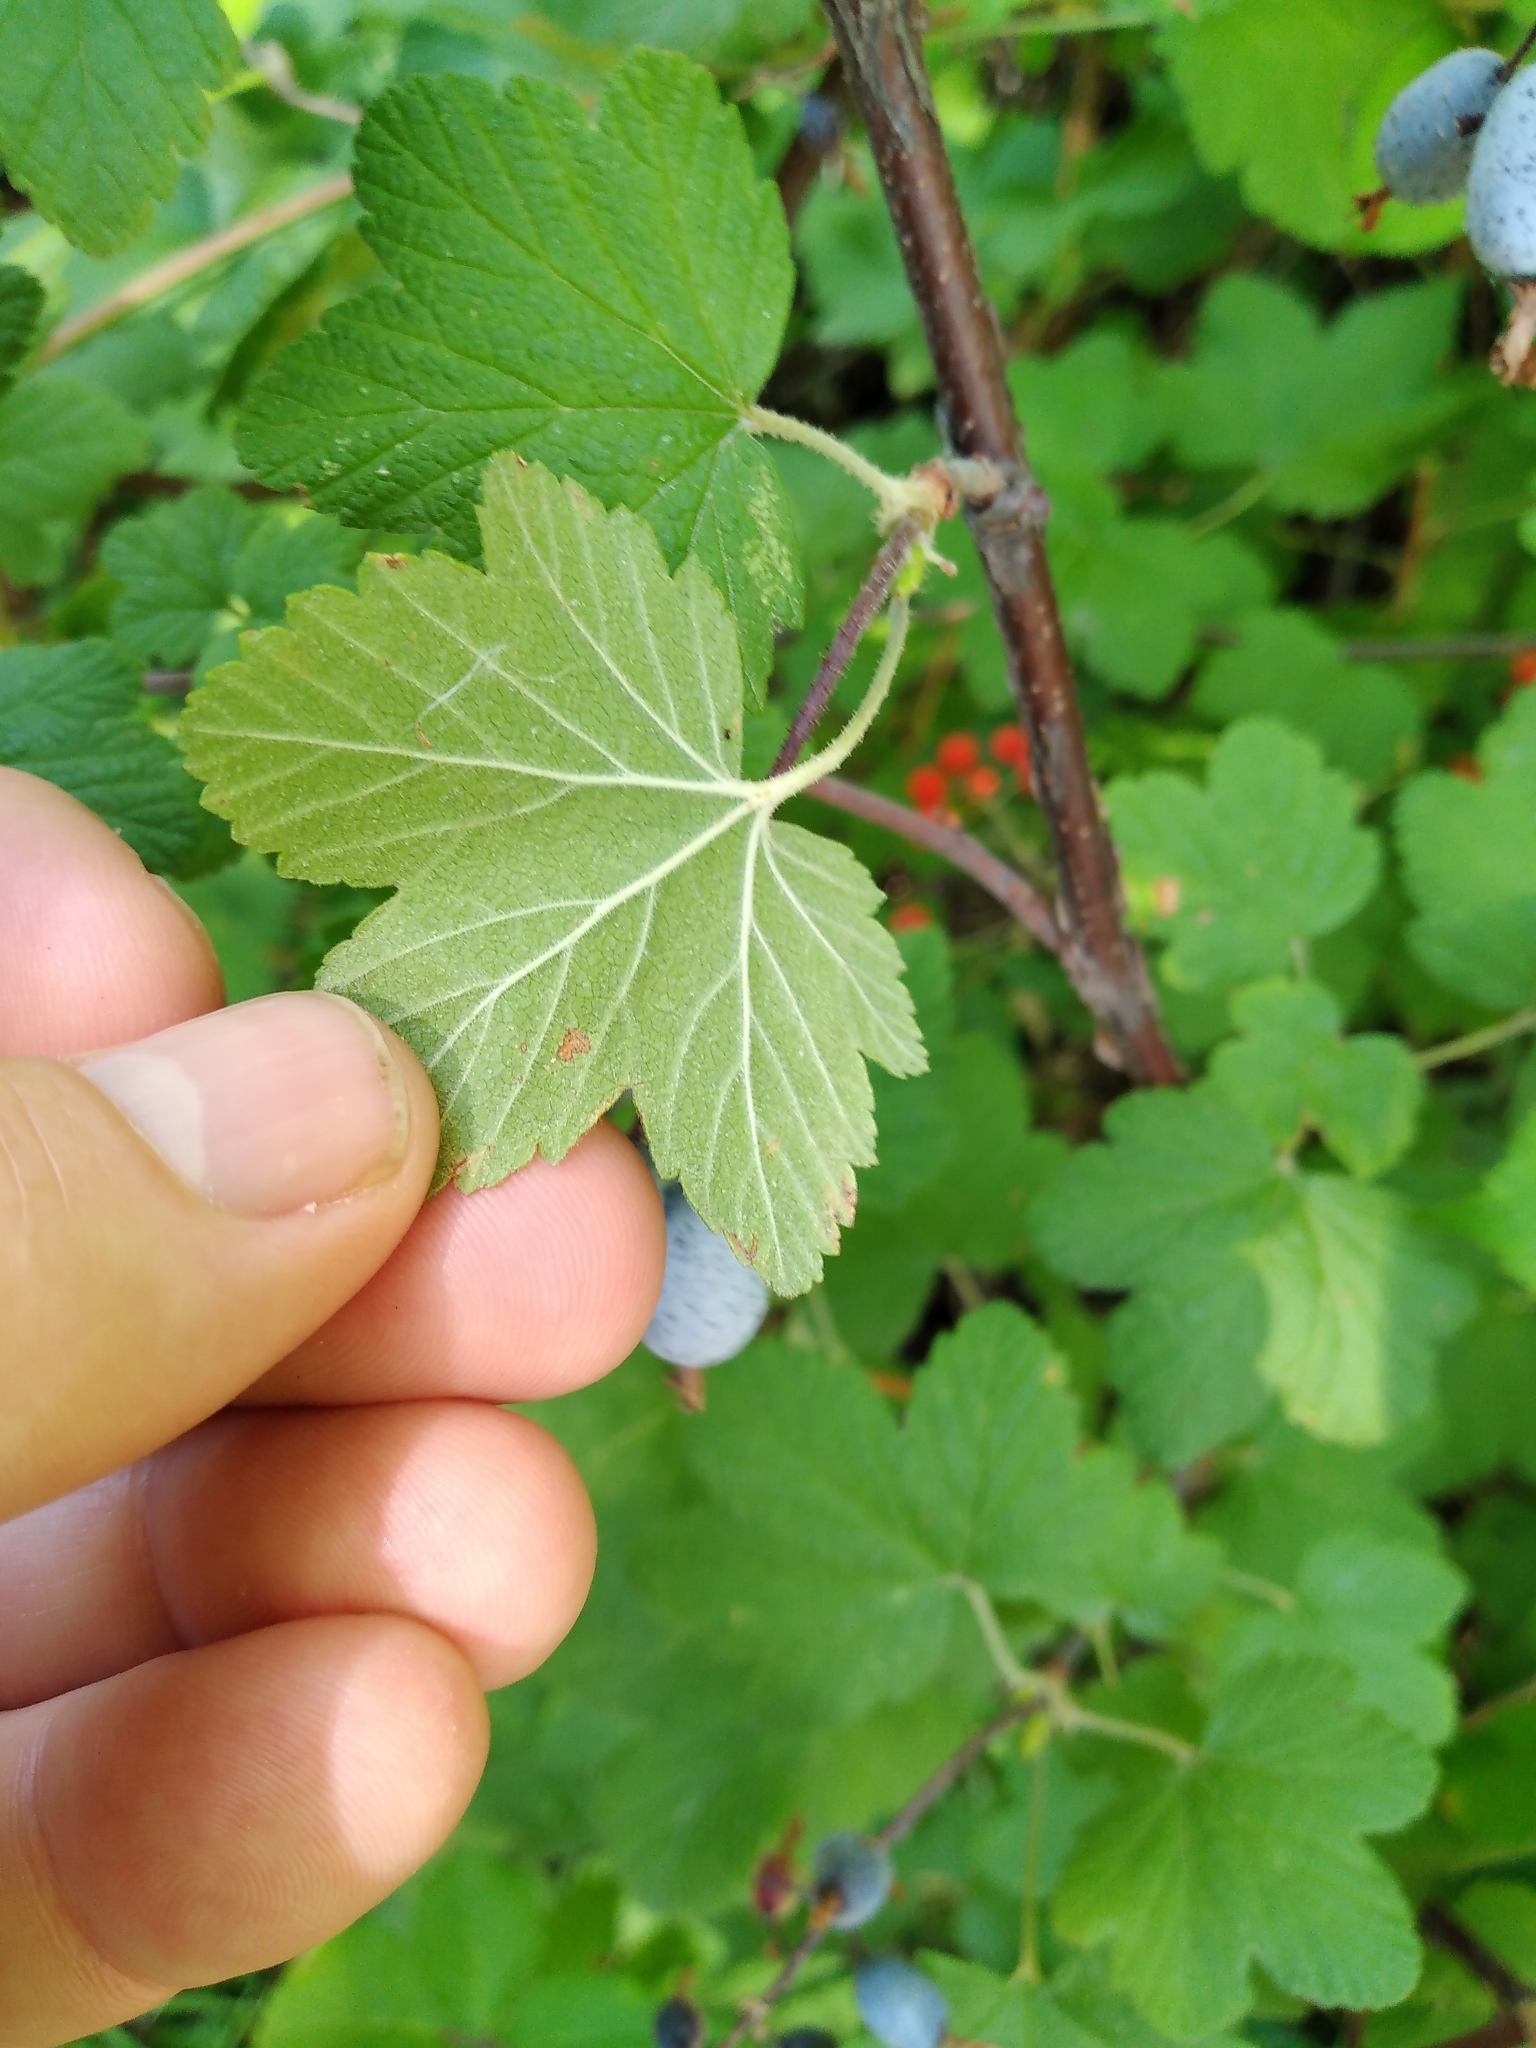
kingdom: Plantae
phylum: Tracheophyta
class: Magnoliopsida
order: Saxifragales
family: Grossulariaceae
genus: Ribes
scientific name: Ribes sanguineum
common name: Flowering currant
